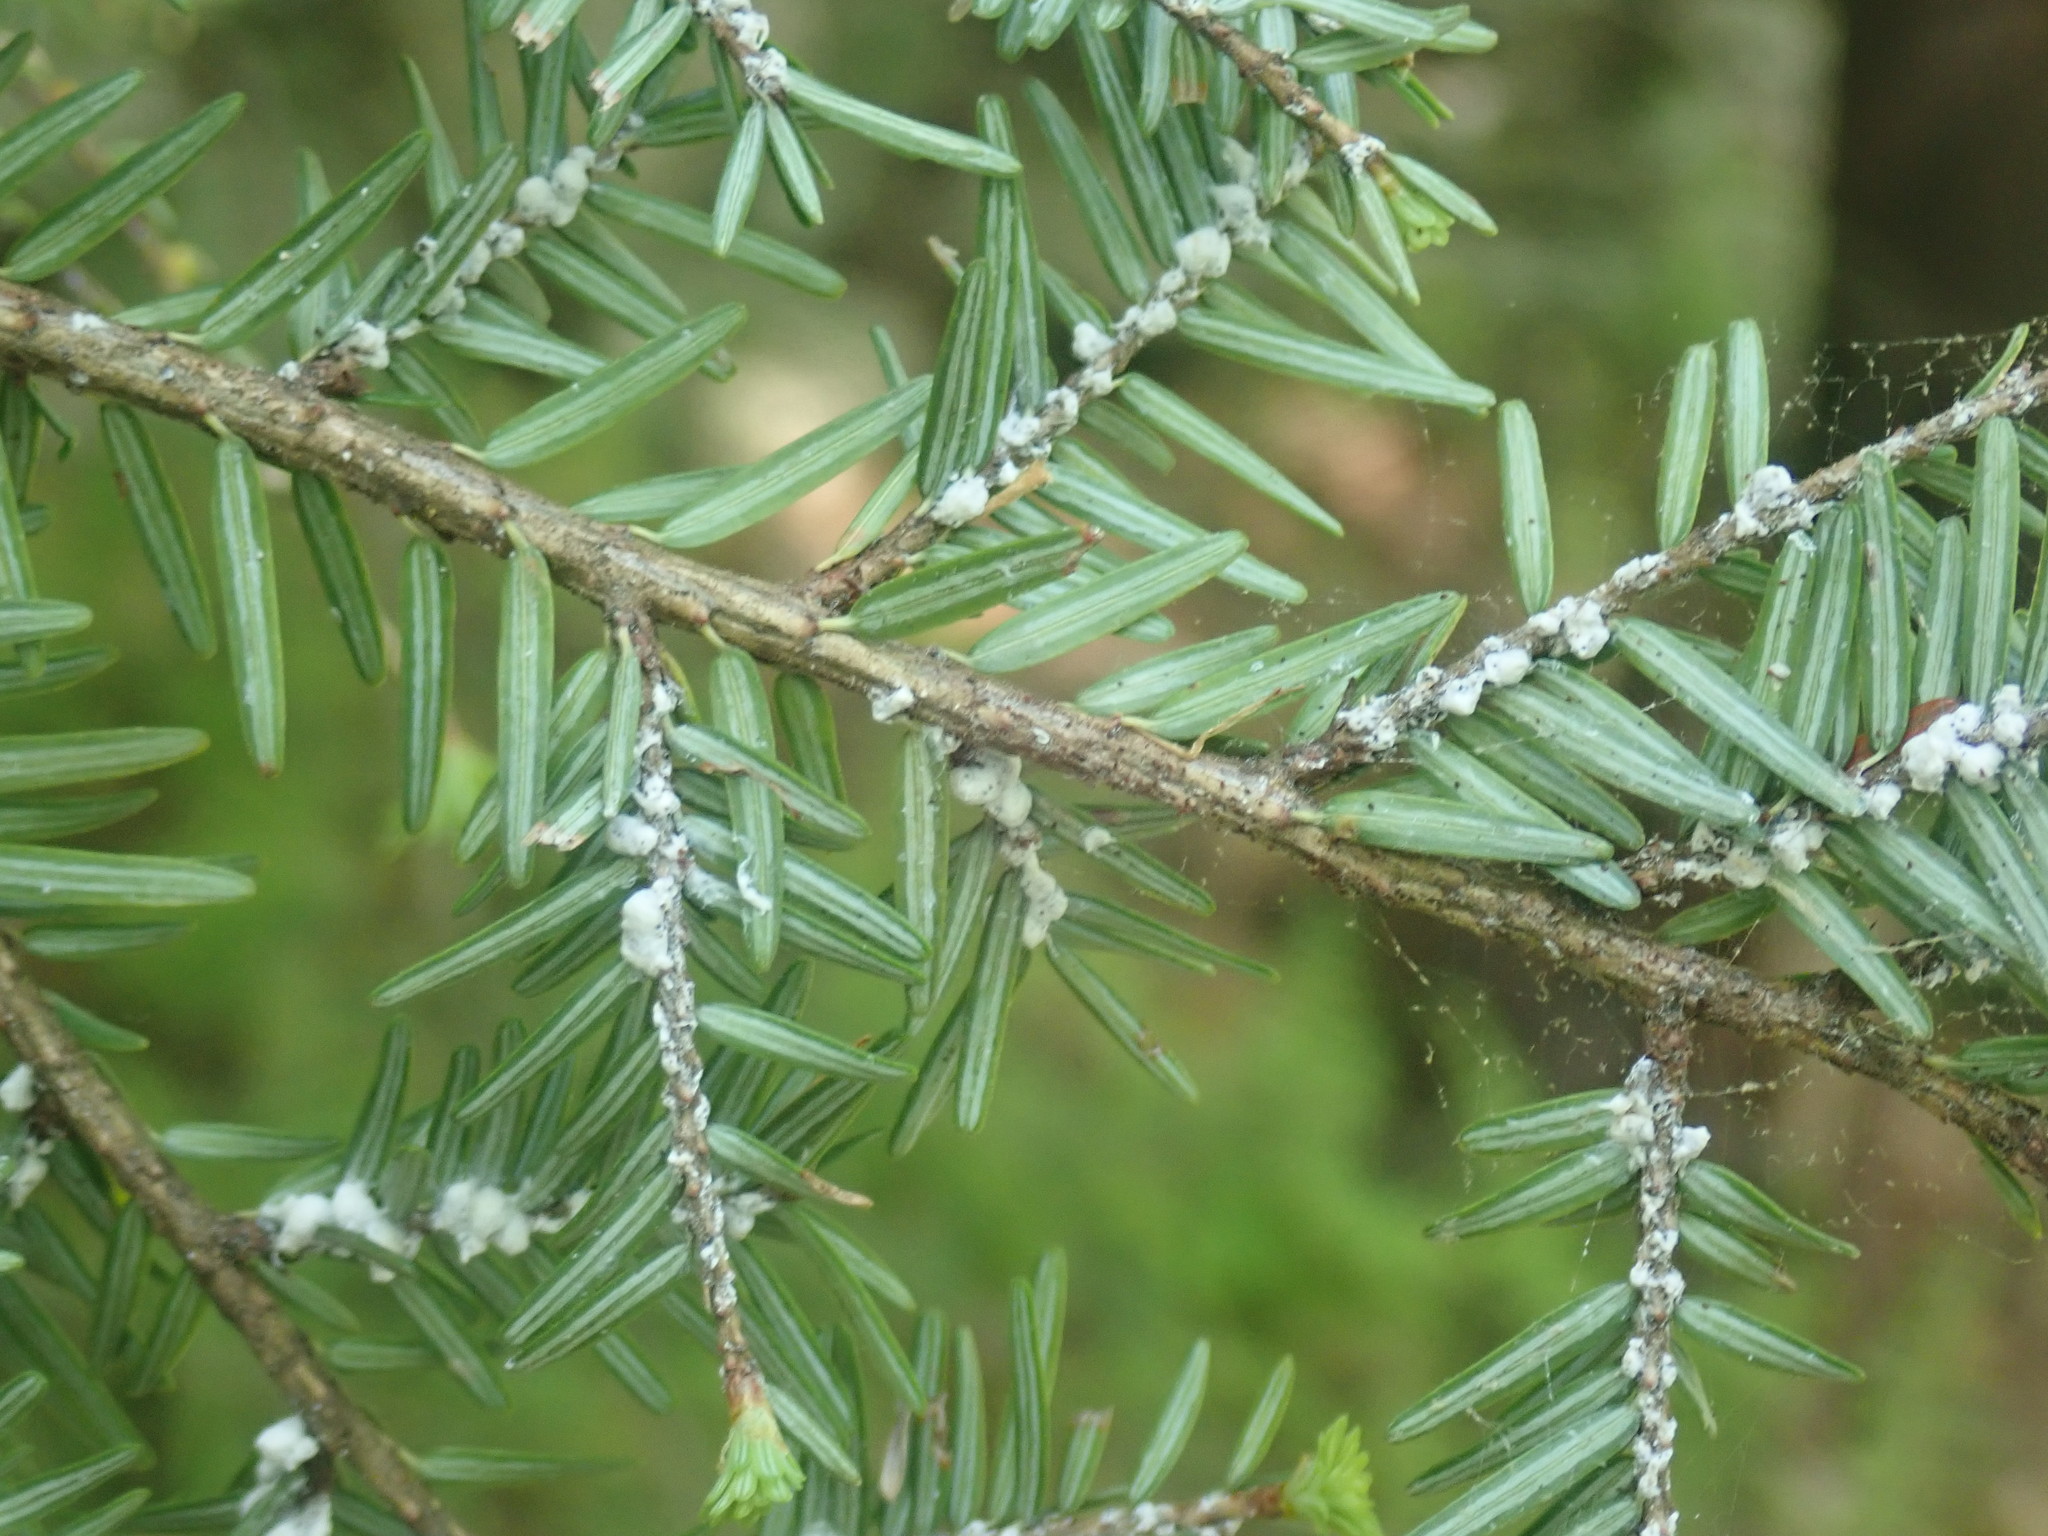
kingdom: Animalia
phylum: Arthropoda
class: Insecta
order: Hemiptera
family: Adelgidae
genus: Adelges
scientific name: Adelges tsugae
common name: Hemlock woolly adelgid
